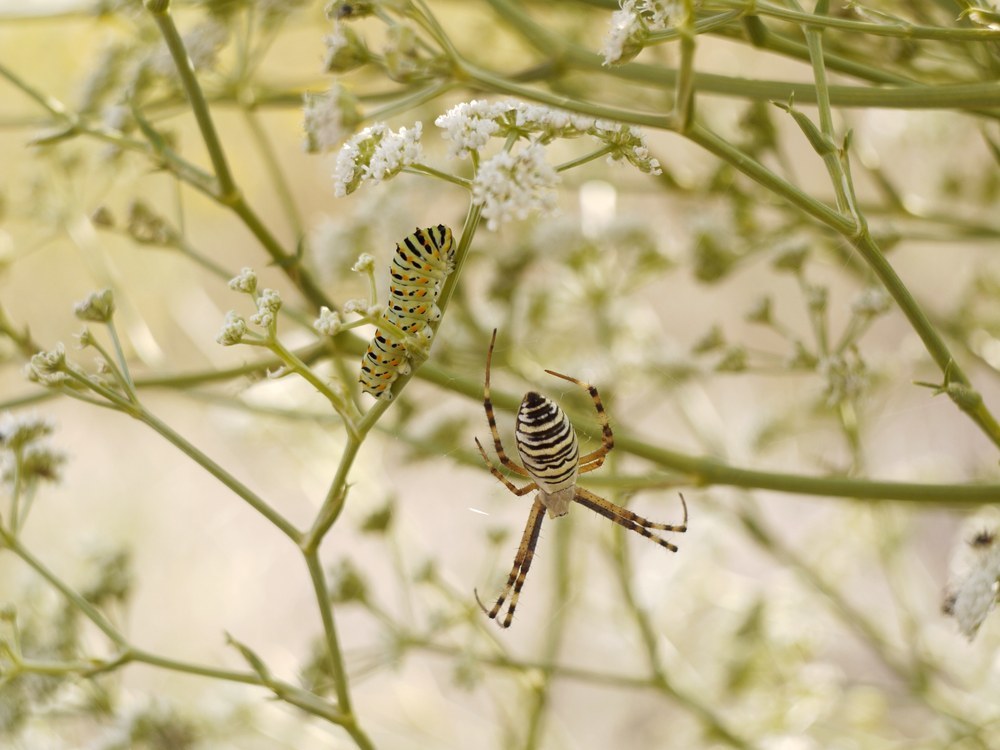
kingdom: Animalia
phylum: Arthropoda
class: Arachnida
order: Araneae
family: Araneidae
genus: Argiope
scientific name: Argiope bruennichi
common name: Wasp spider
